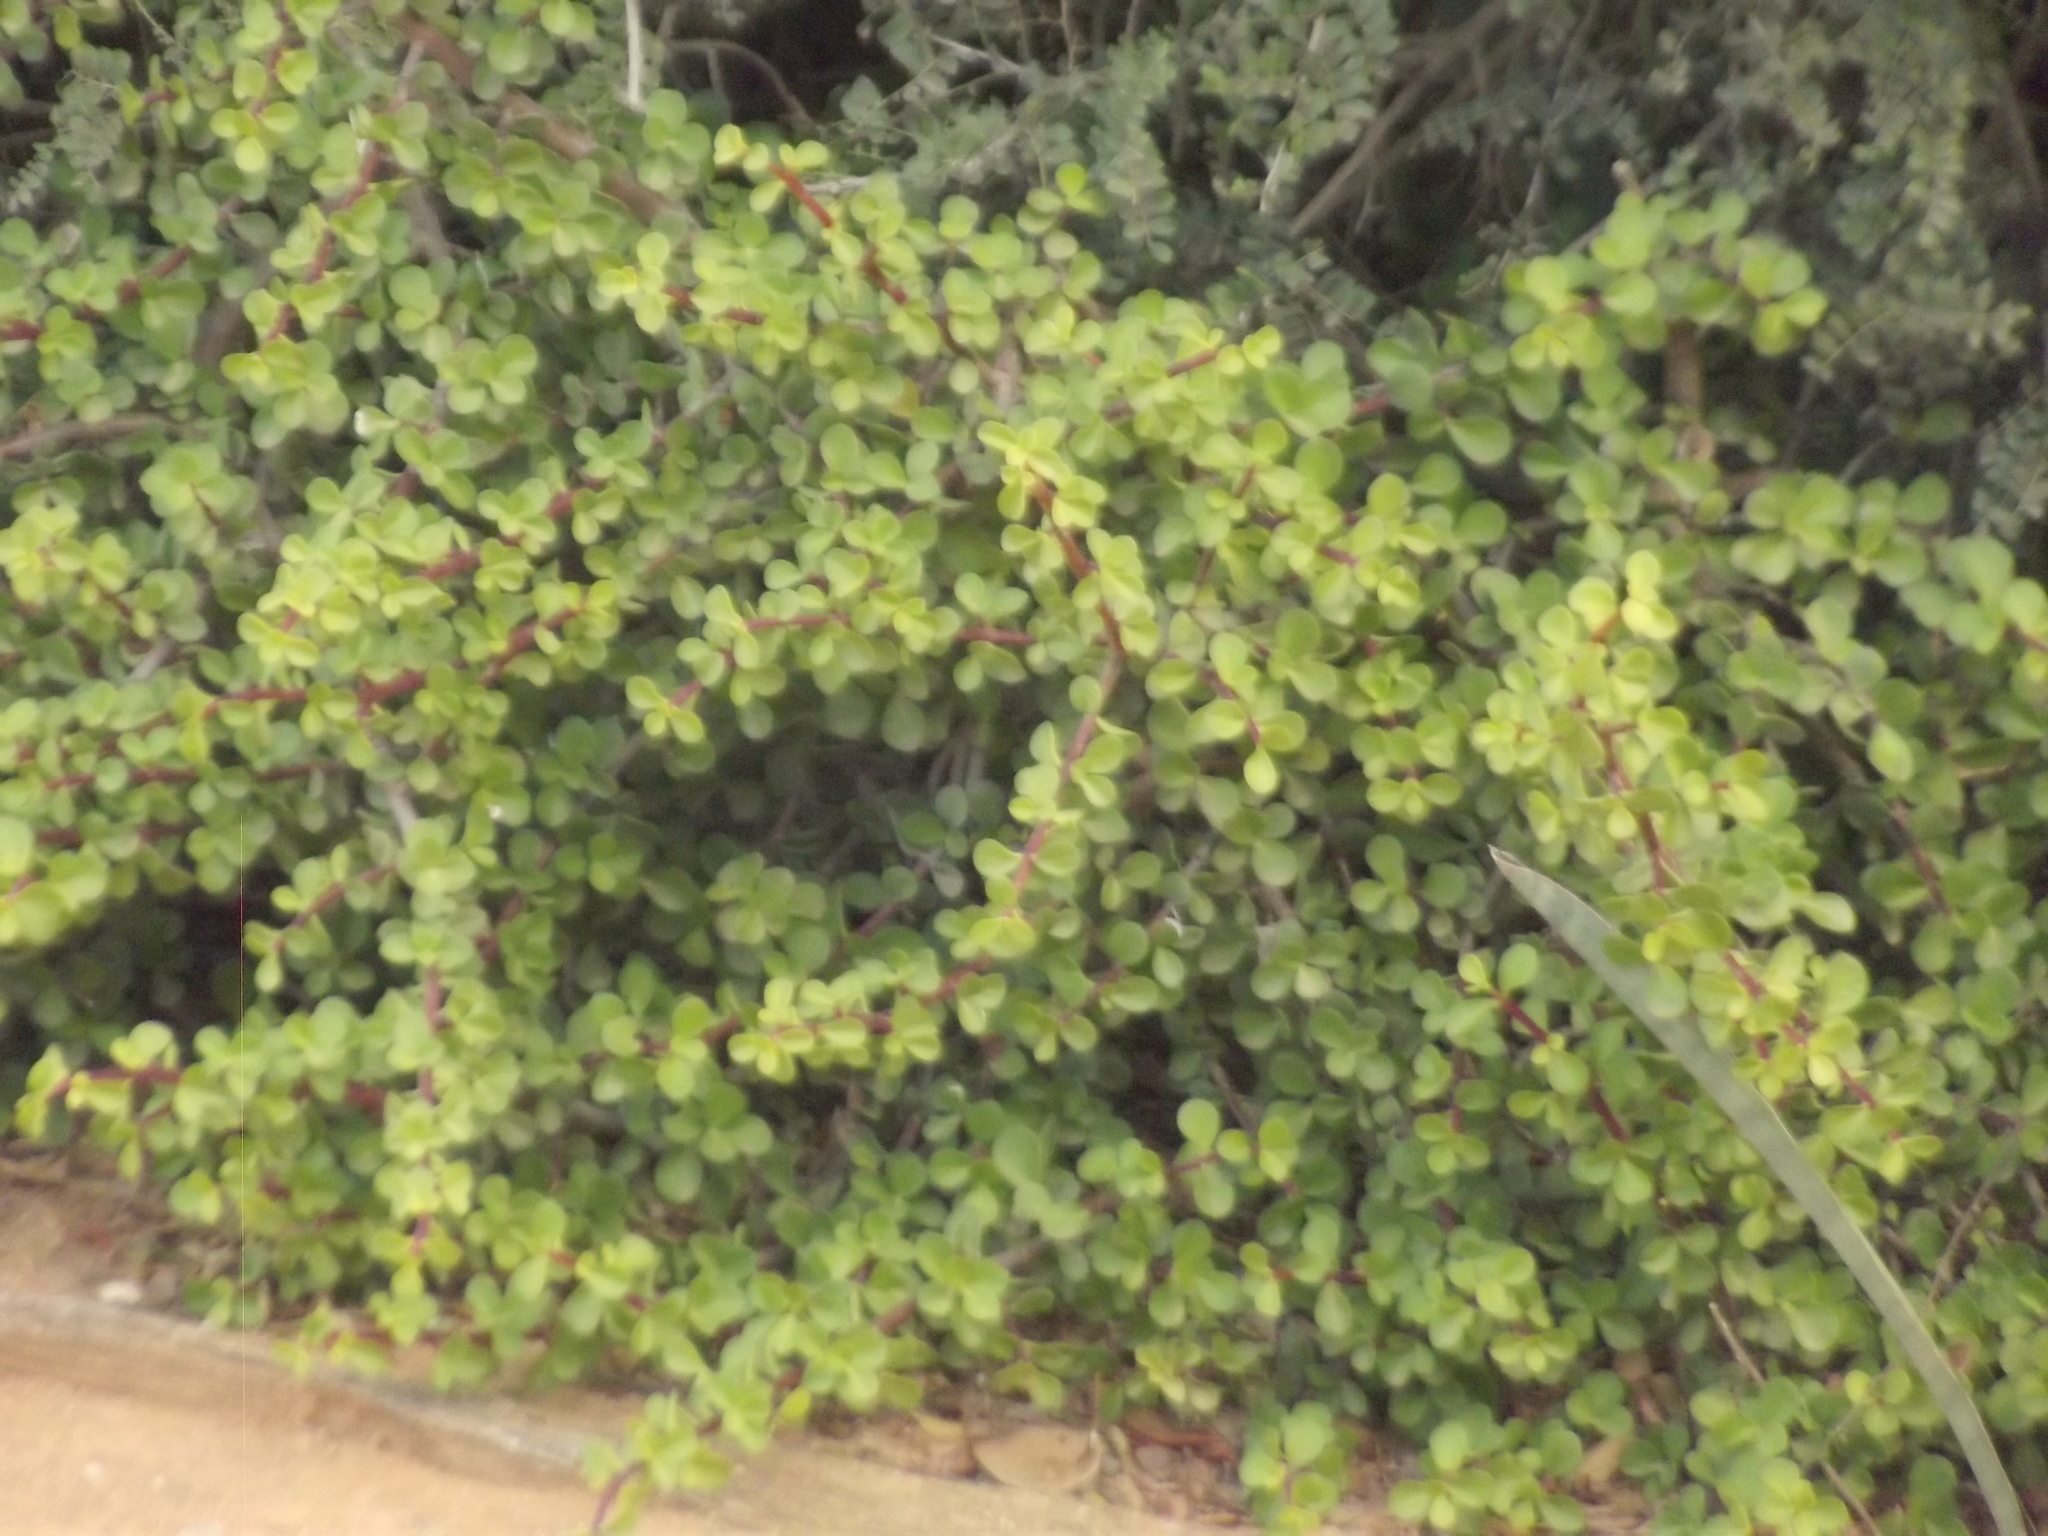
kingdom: Plantae
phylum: Tracheophyta
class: Magnoliopsida
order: Caryophyllales
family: Didiereaceae
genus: Portulacaria
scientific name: Portulacaria afra
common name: Elephant-bush
